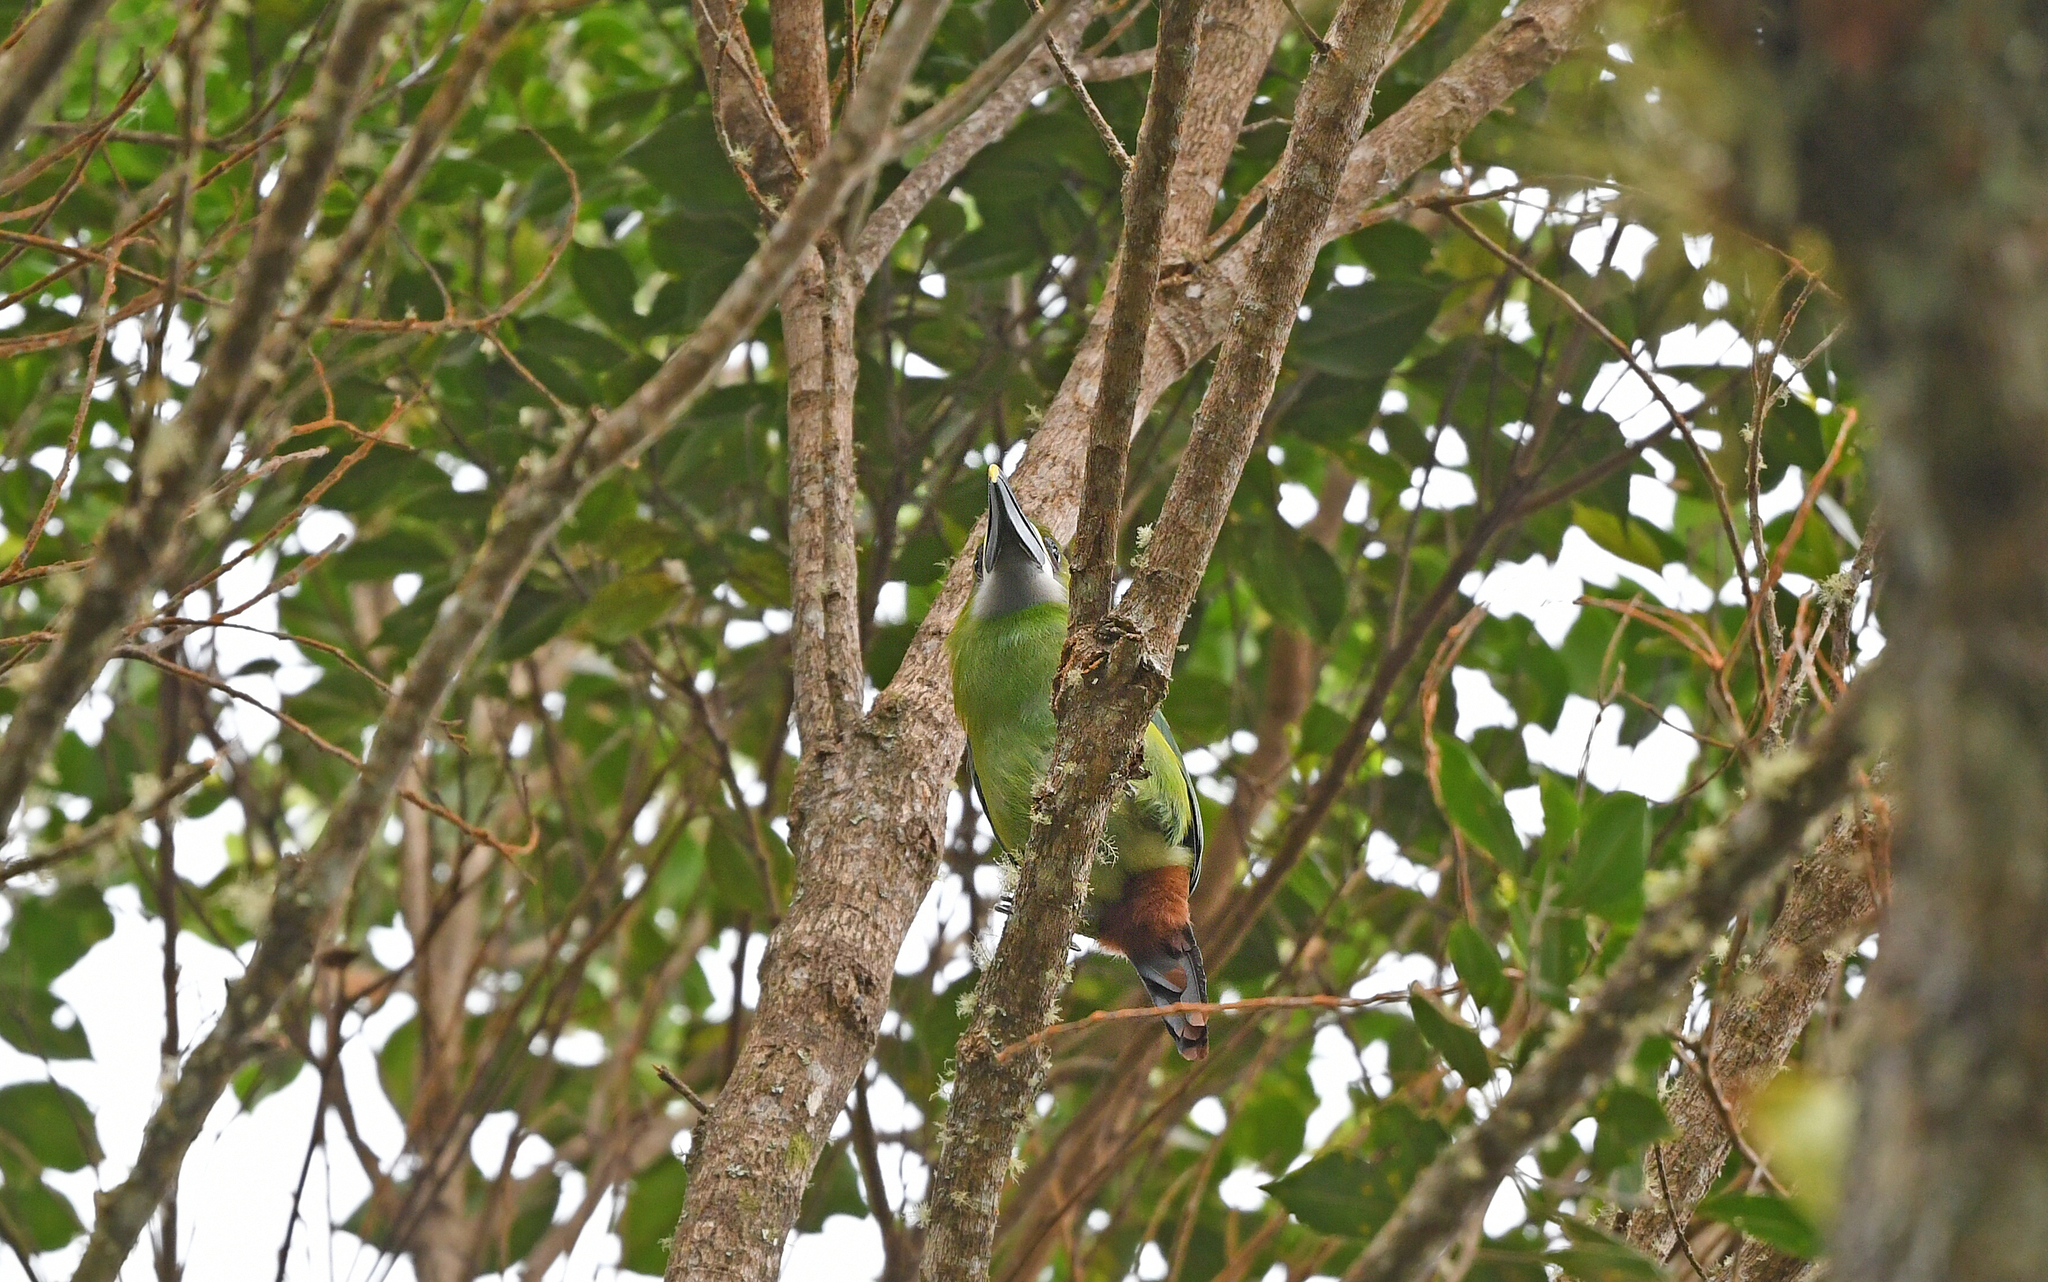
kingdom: Animalia
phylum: Chordata
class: Aves
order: Piciformes
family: Ramphastidae
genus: Aulacorhynchus
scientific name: Aulacorhynchus albivitta
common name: White-throated toucanet
